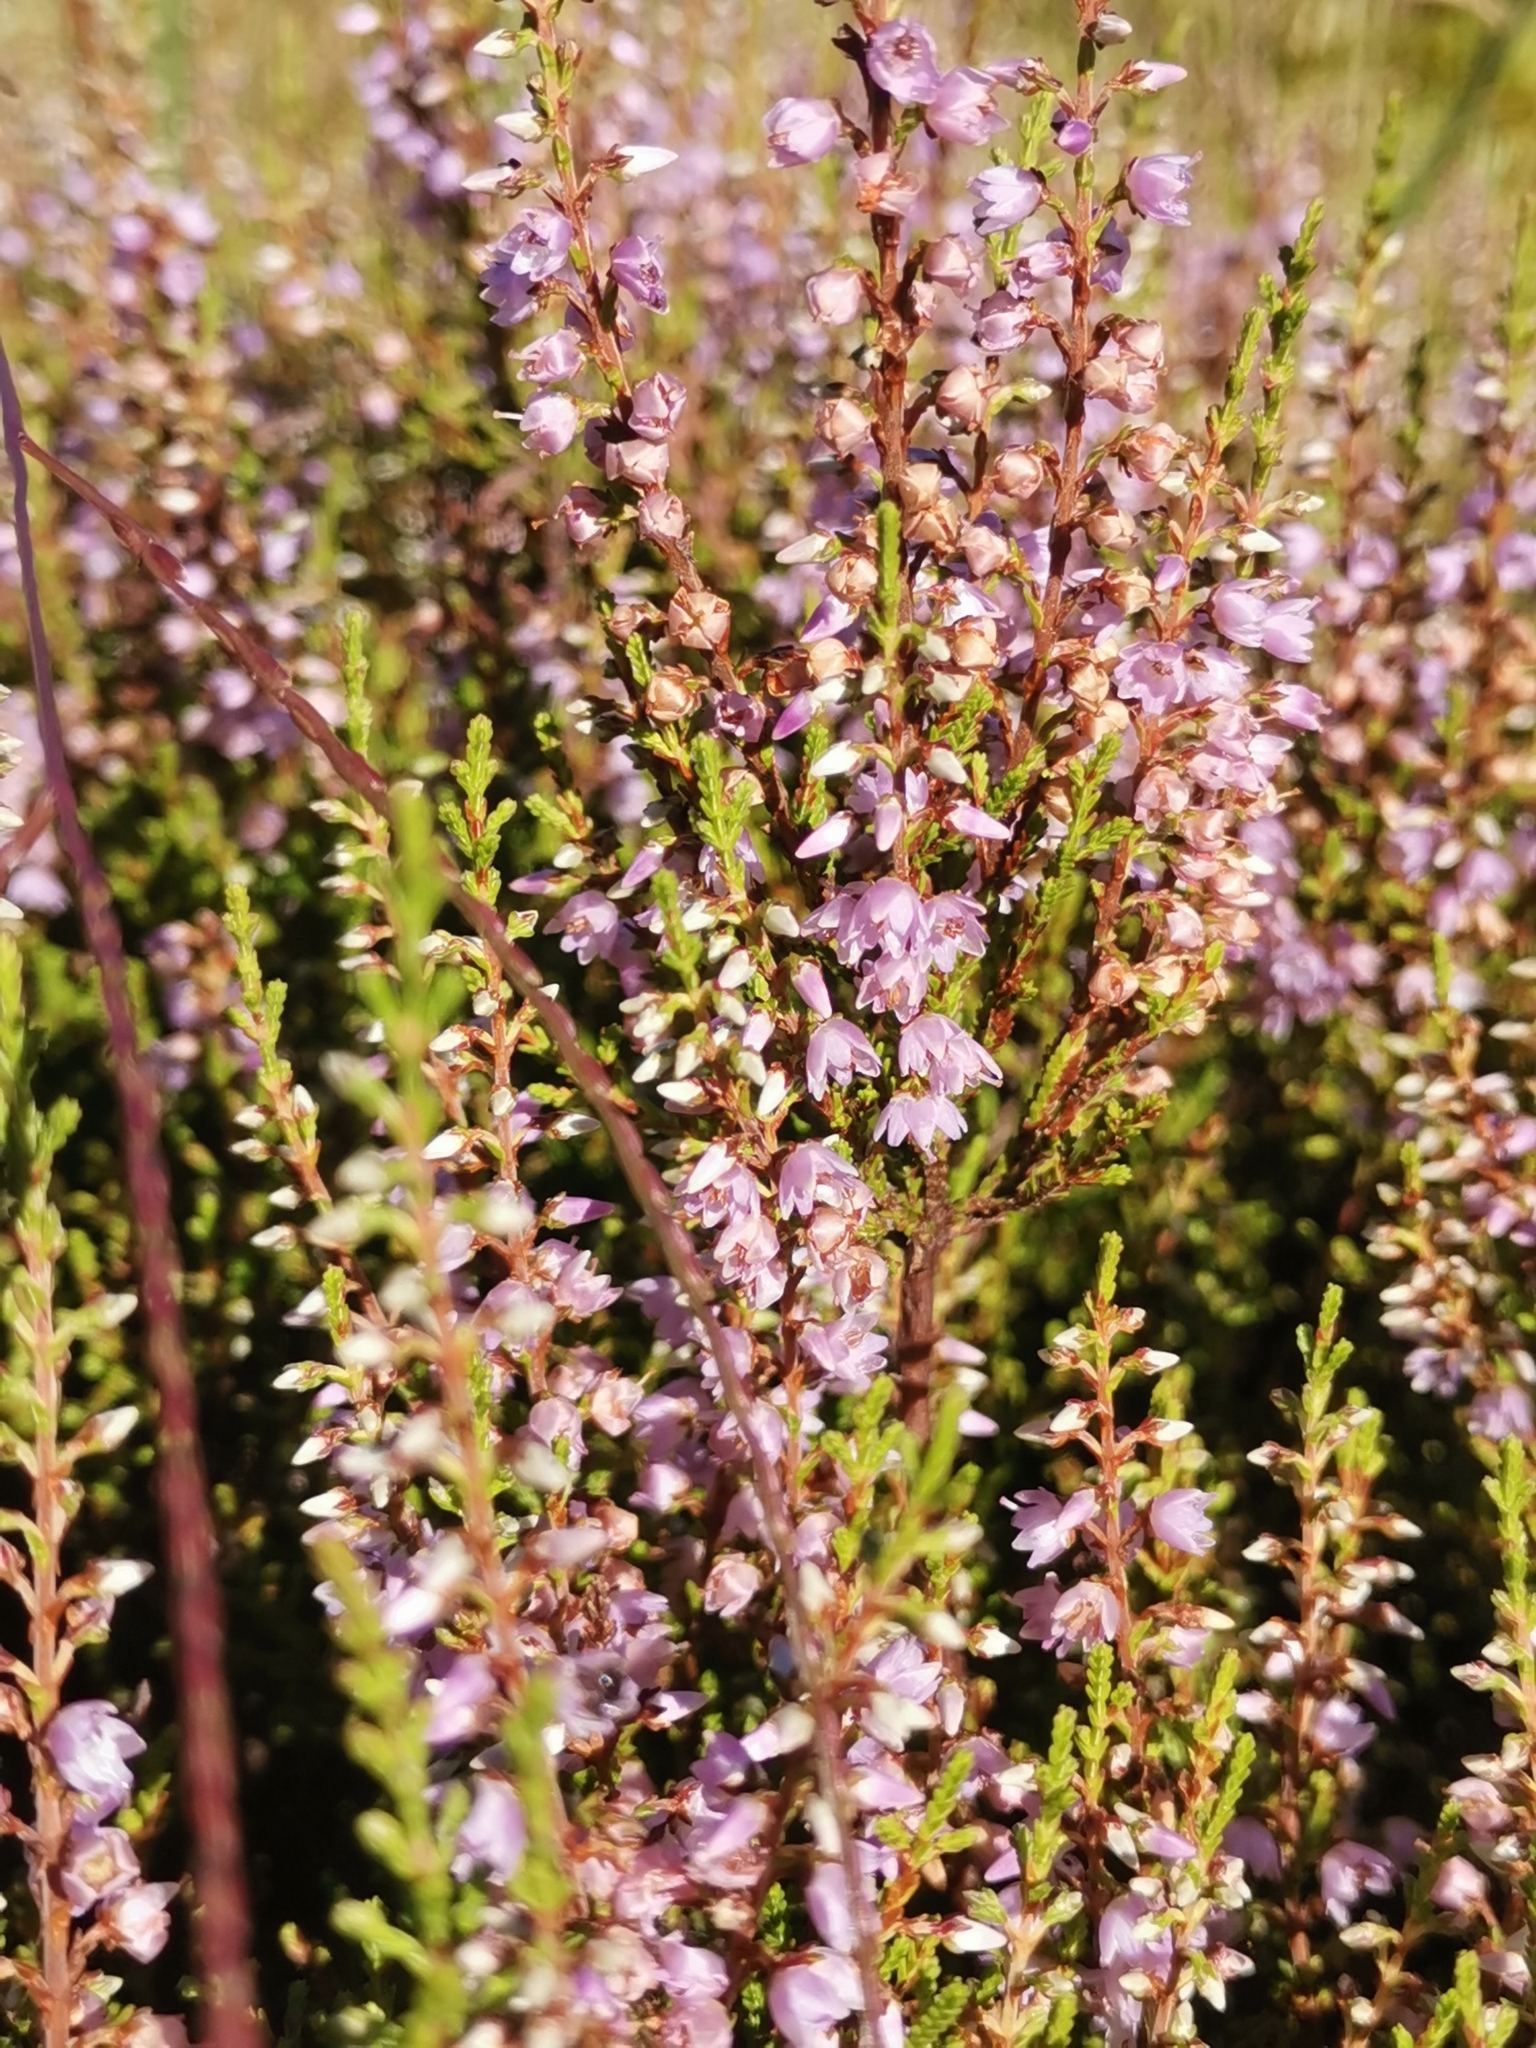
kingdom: Plantae
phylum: Tracheophyta
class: Magnoliopsida
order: Ericales
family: Ericaceae
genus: Calluna
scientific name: Calluna vulgaris
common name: Heather
